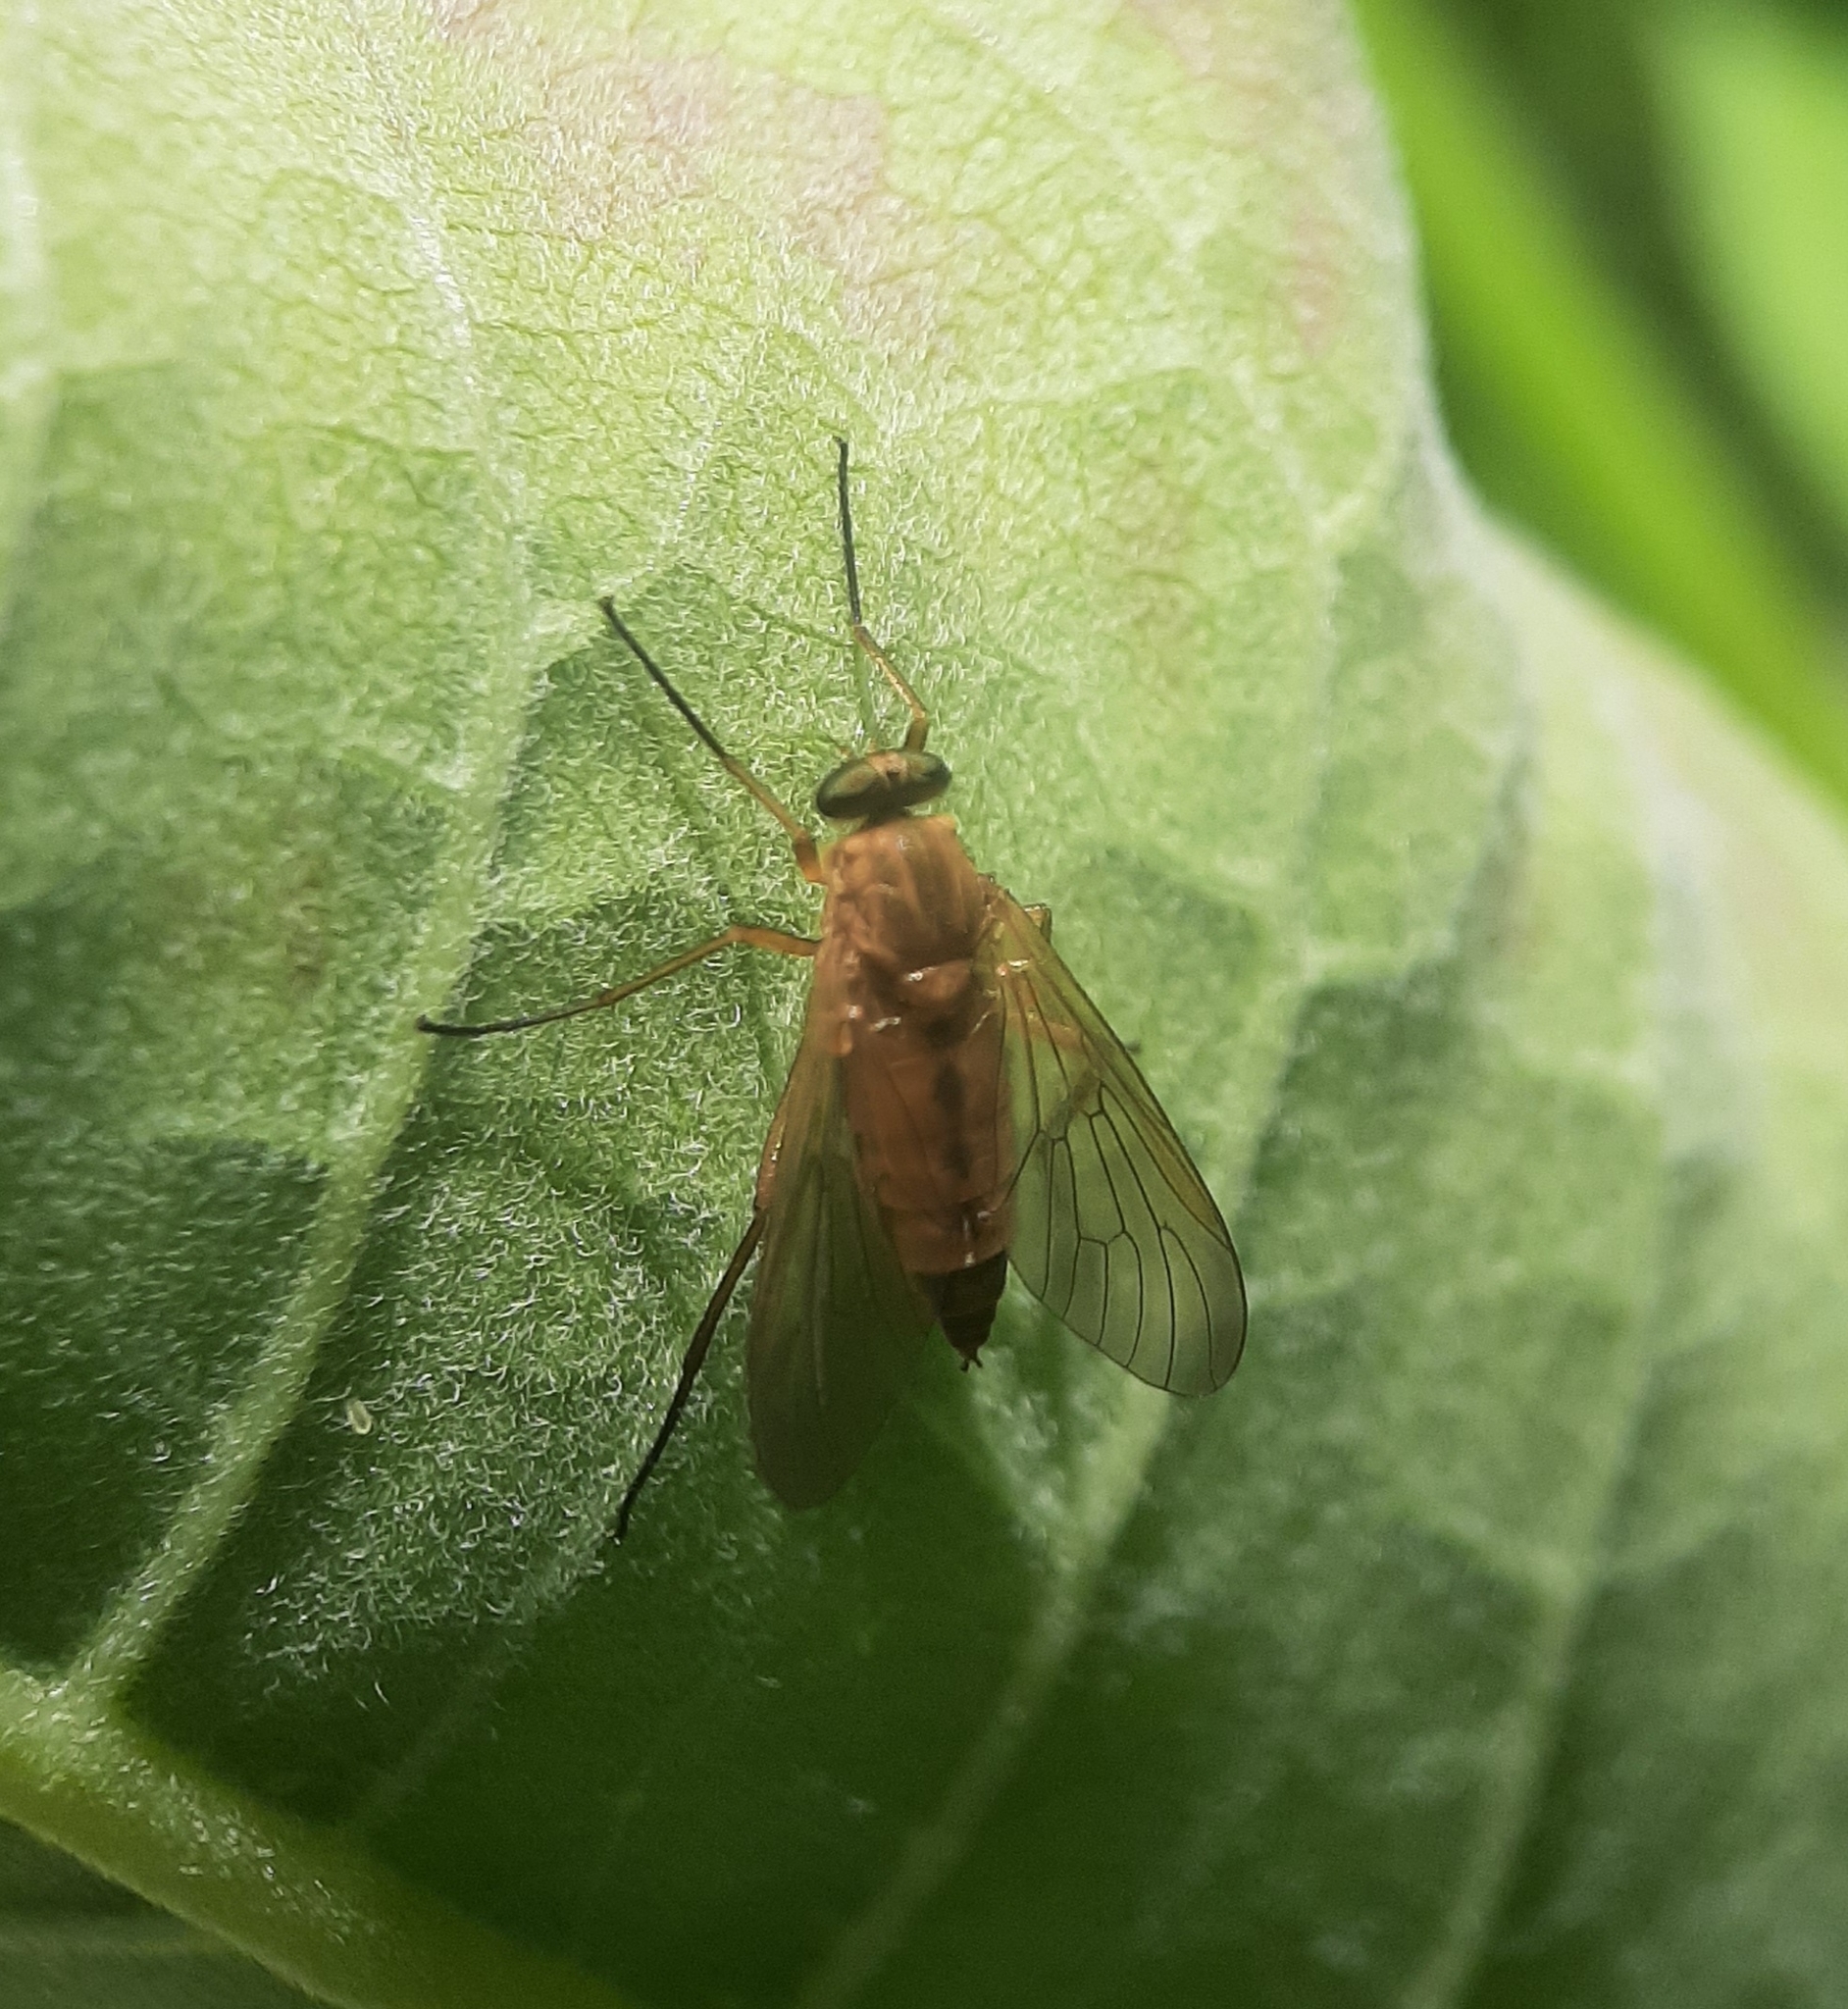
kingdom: Animalia
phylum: Arthropoda
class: Insecta
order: Diptera
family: Rhagionidae
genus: Rhagio
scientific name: Rhagio tringaria
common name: Marsh snipefly
